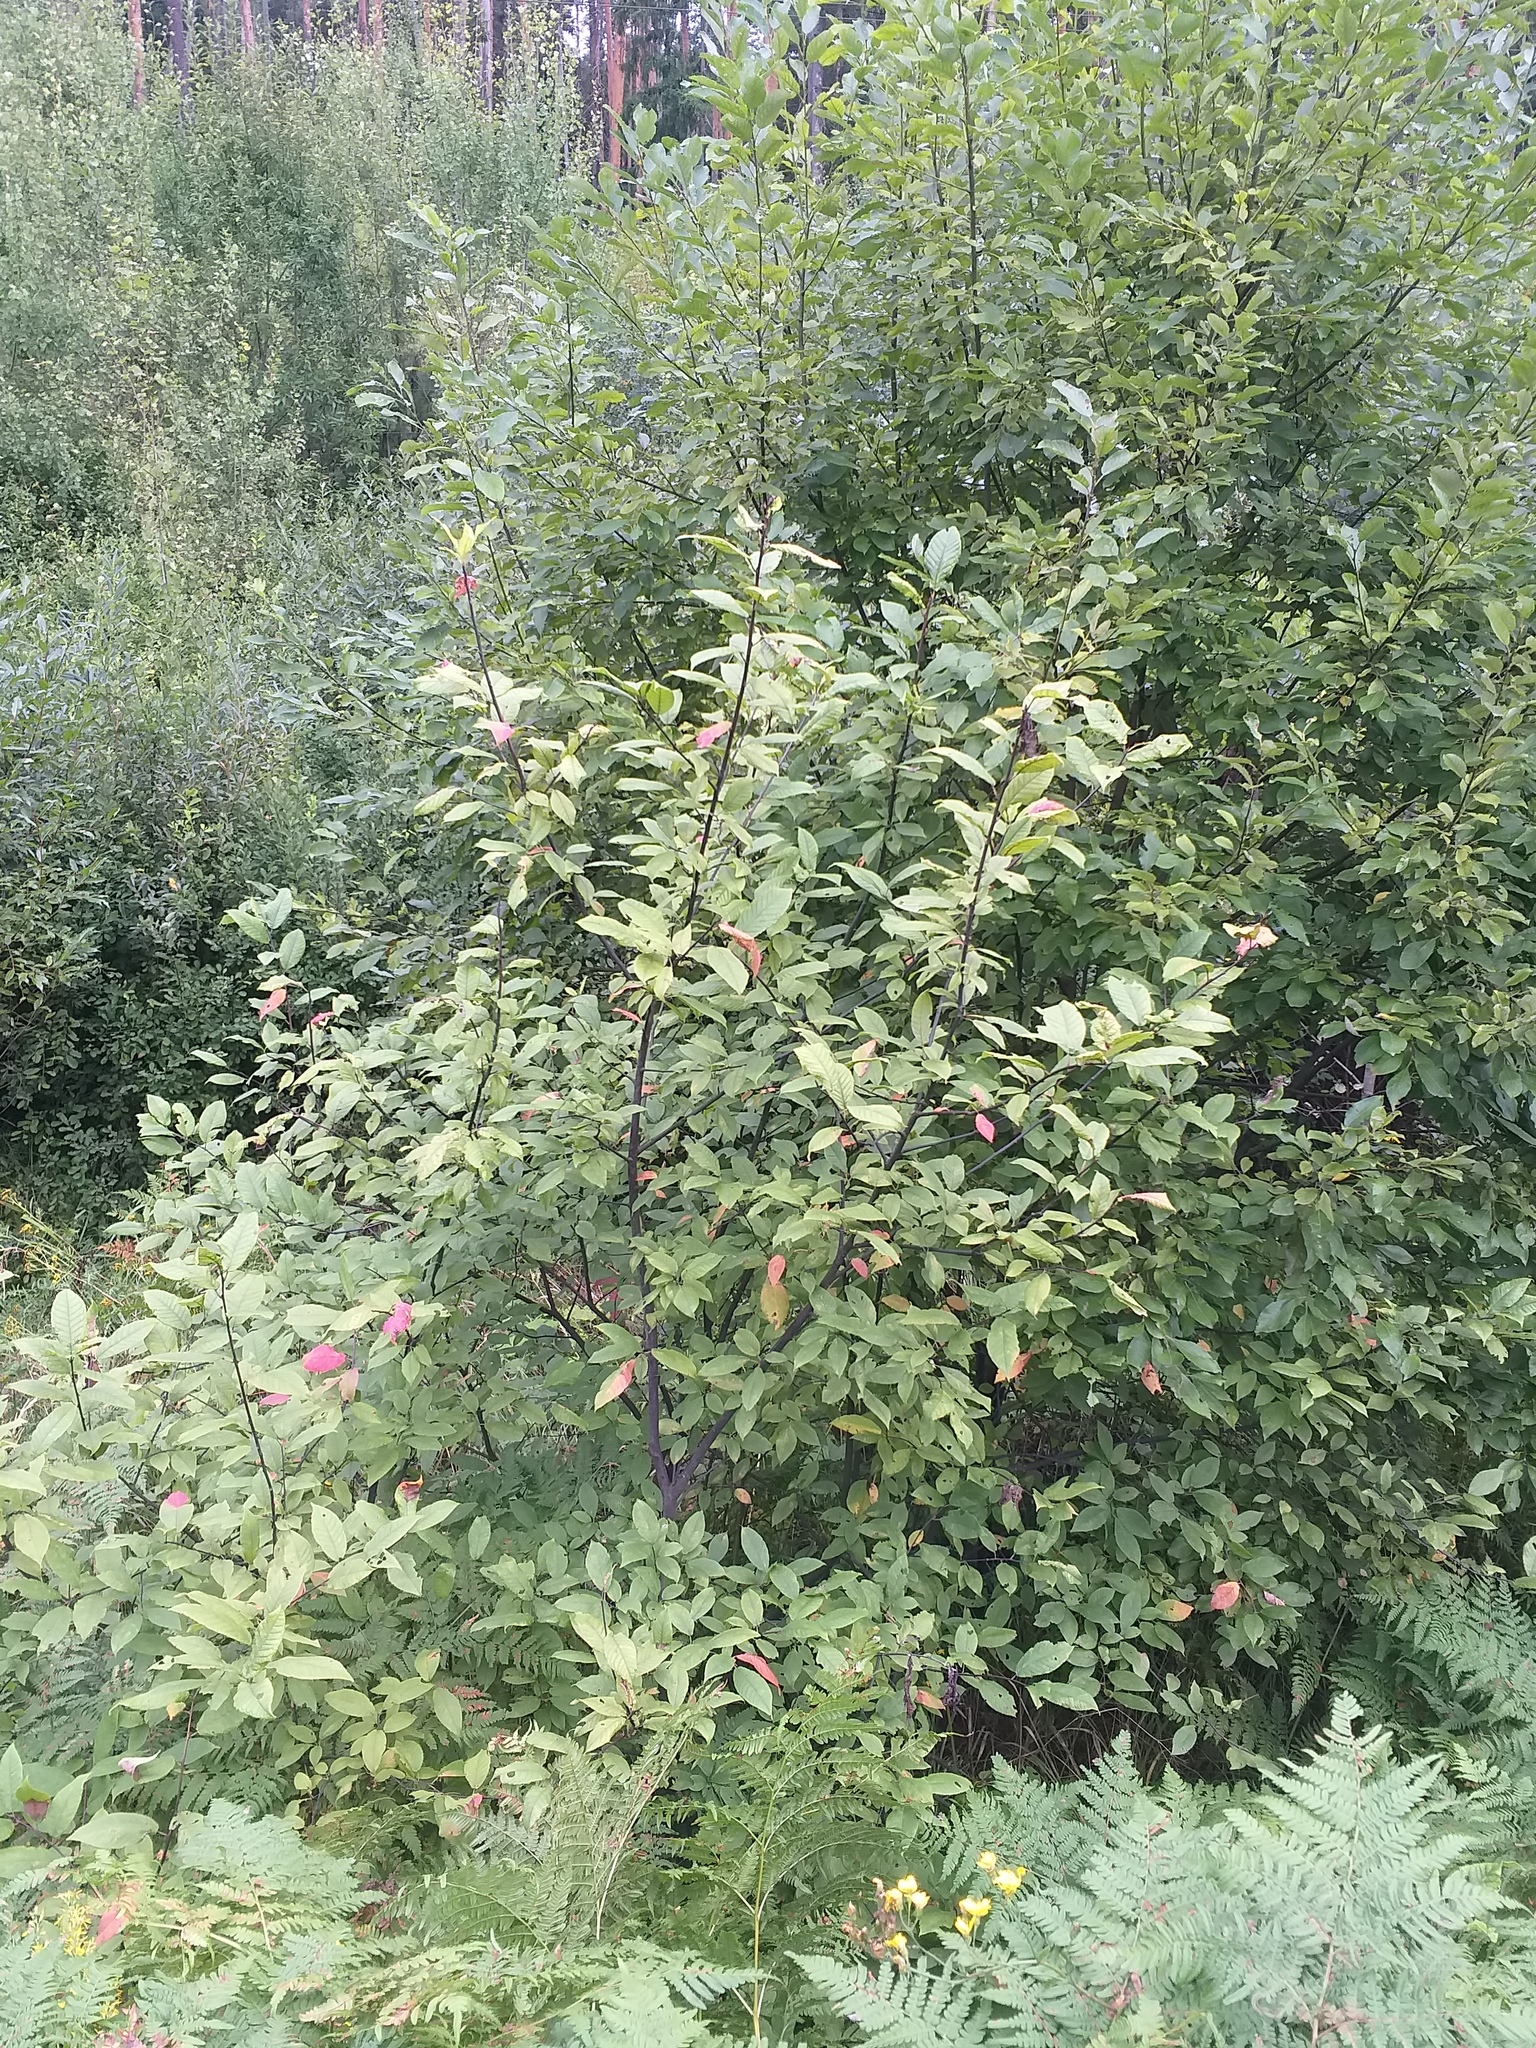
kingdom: Plantae
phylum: Tracheophyta
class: Magnoliopsida
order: Rosales
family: Rosaceae
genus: Prunus
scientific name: Prunus padus
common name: Bird cherry
